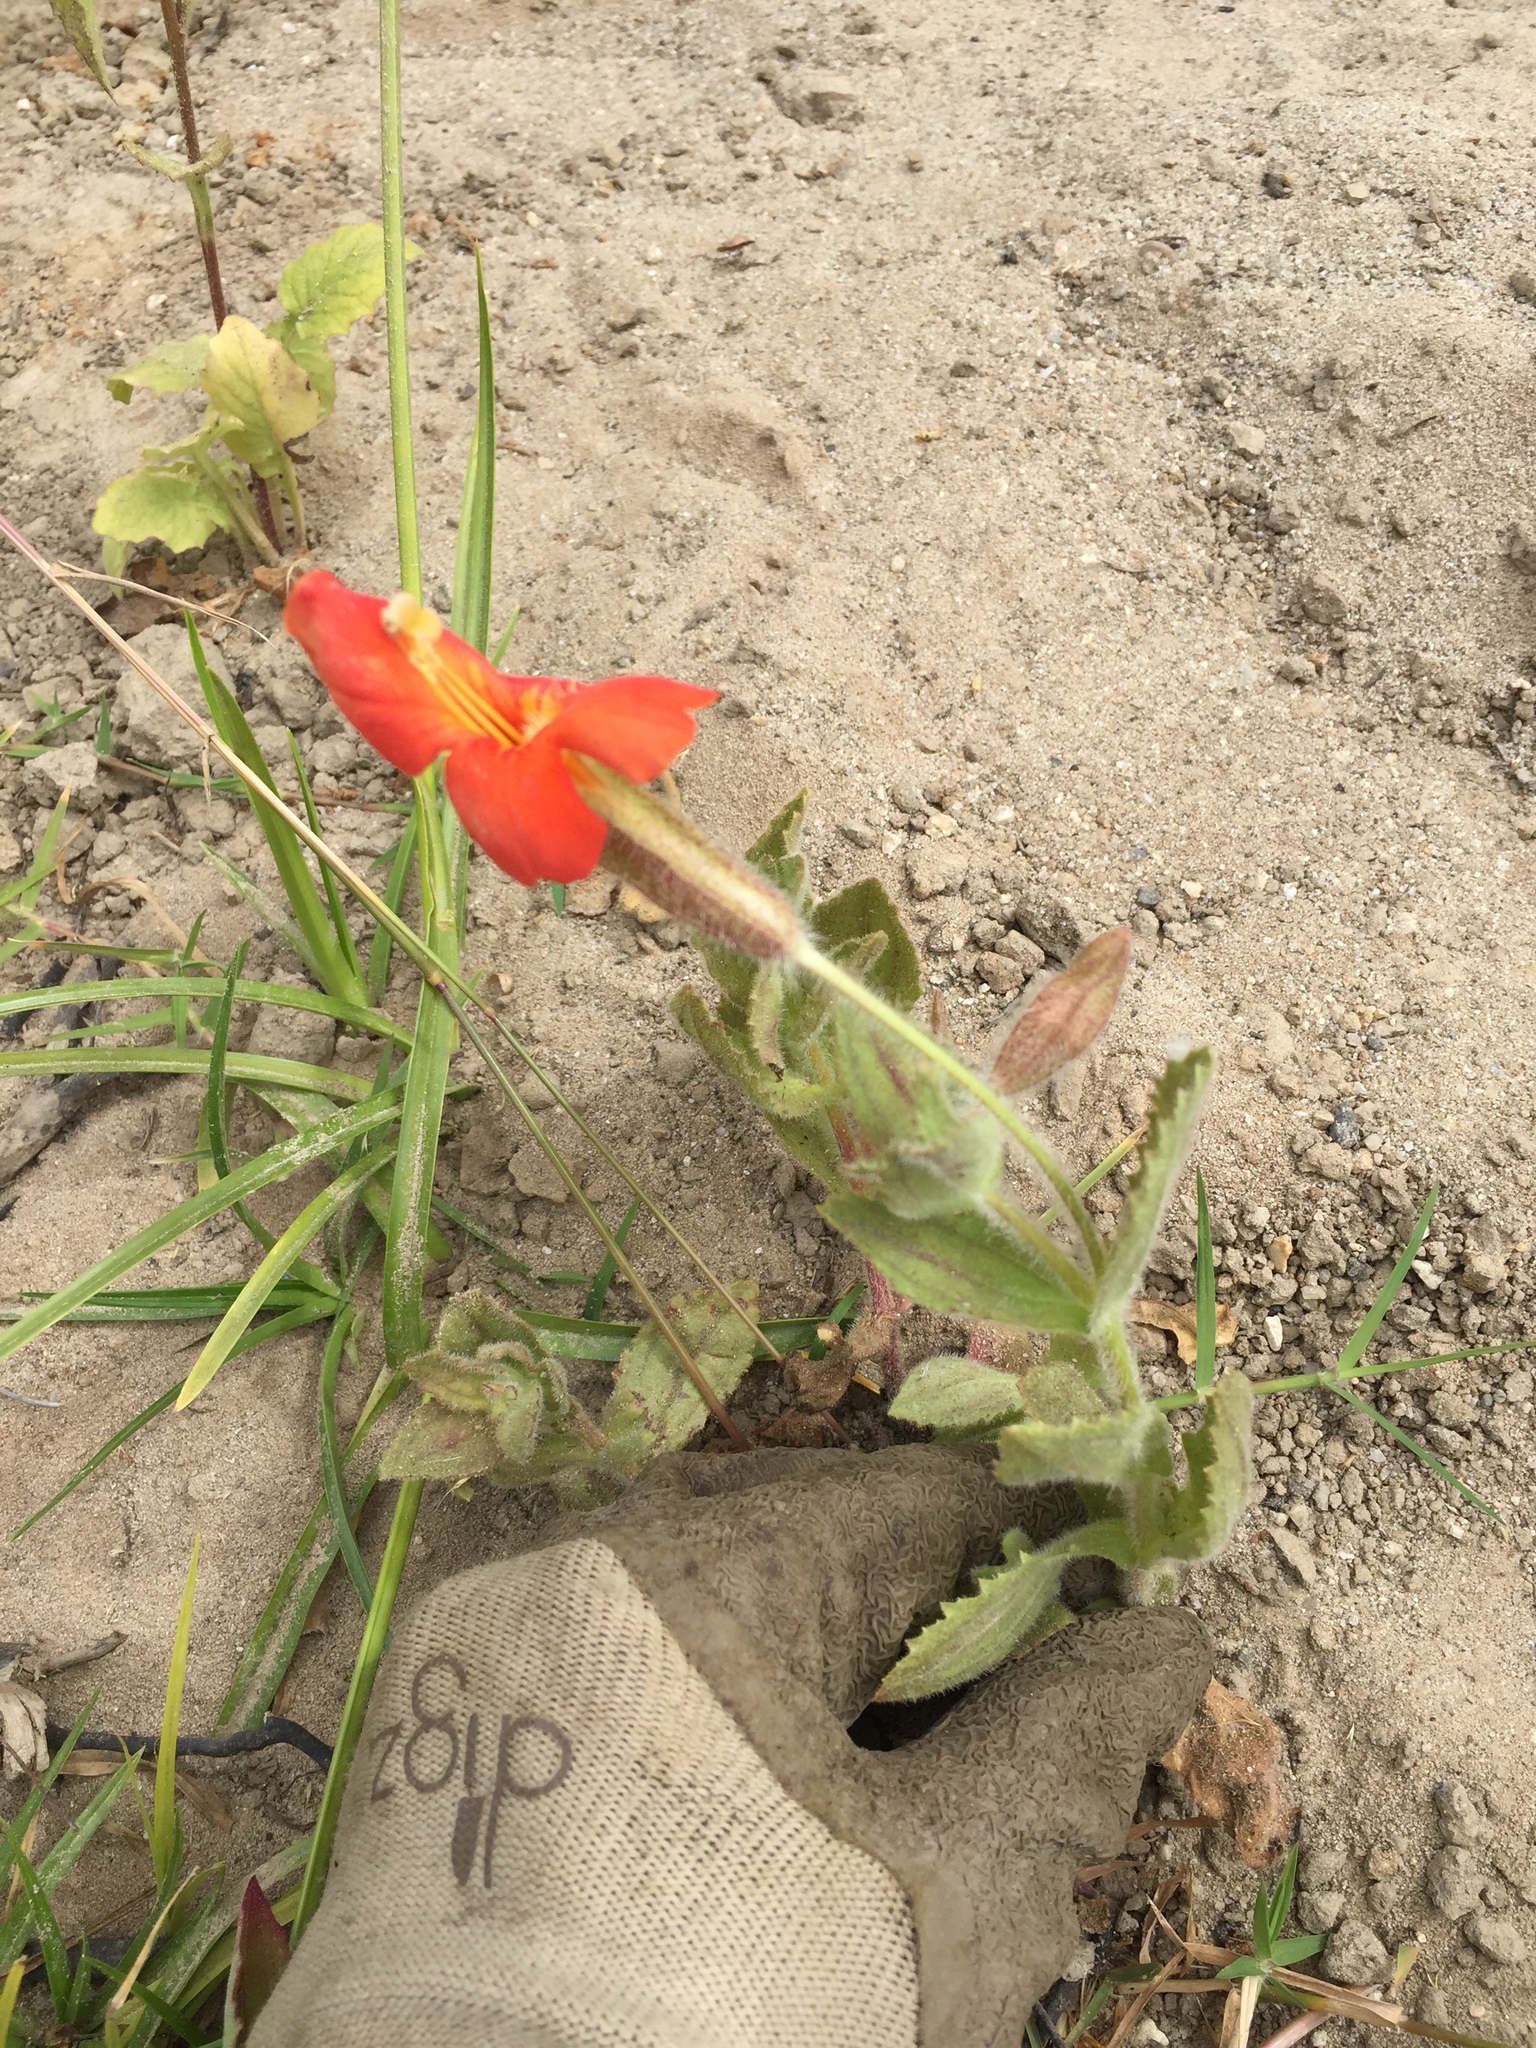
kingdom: Plantae
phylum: Tracheophyta
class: Magnoliopsida
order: Lamiales
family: Phrymaceae
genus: Erythranthe
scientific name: Erythranthe cardinalis
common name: Scarlet monkey-flower
